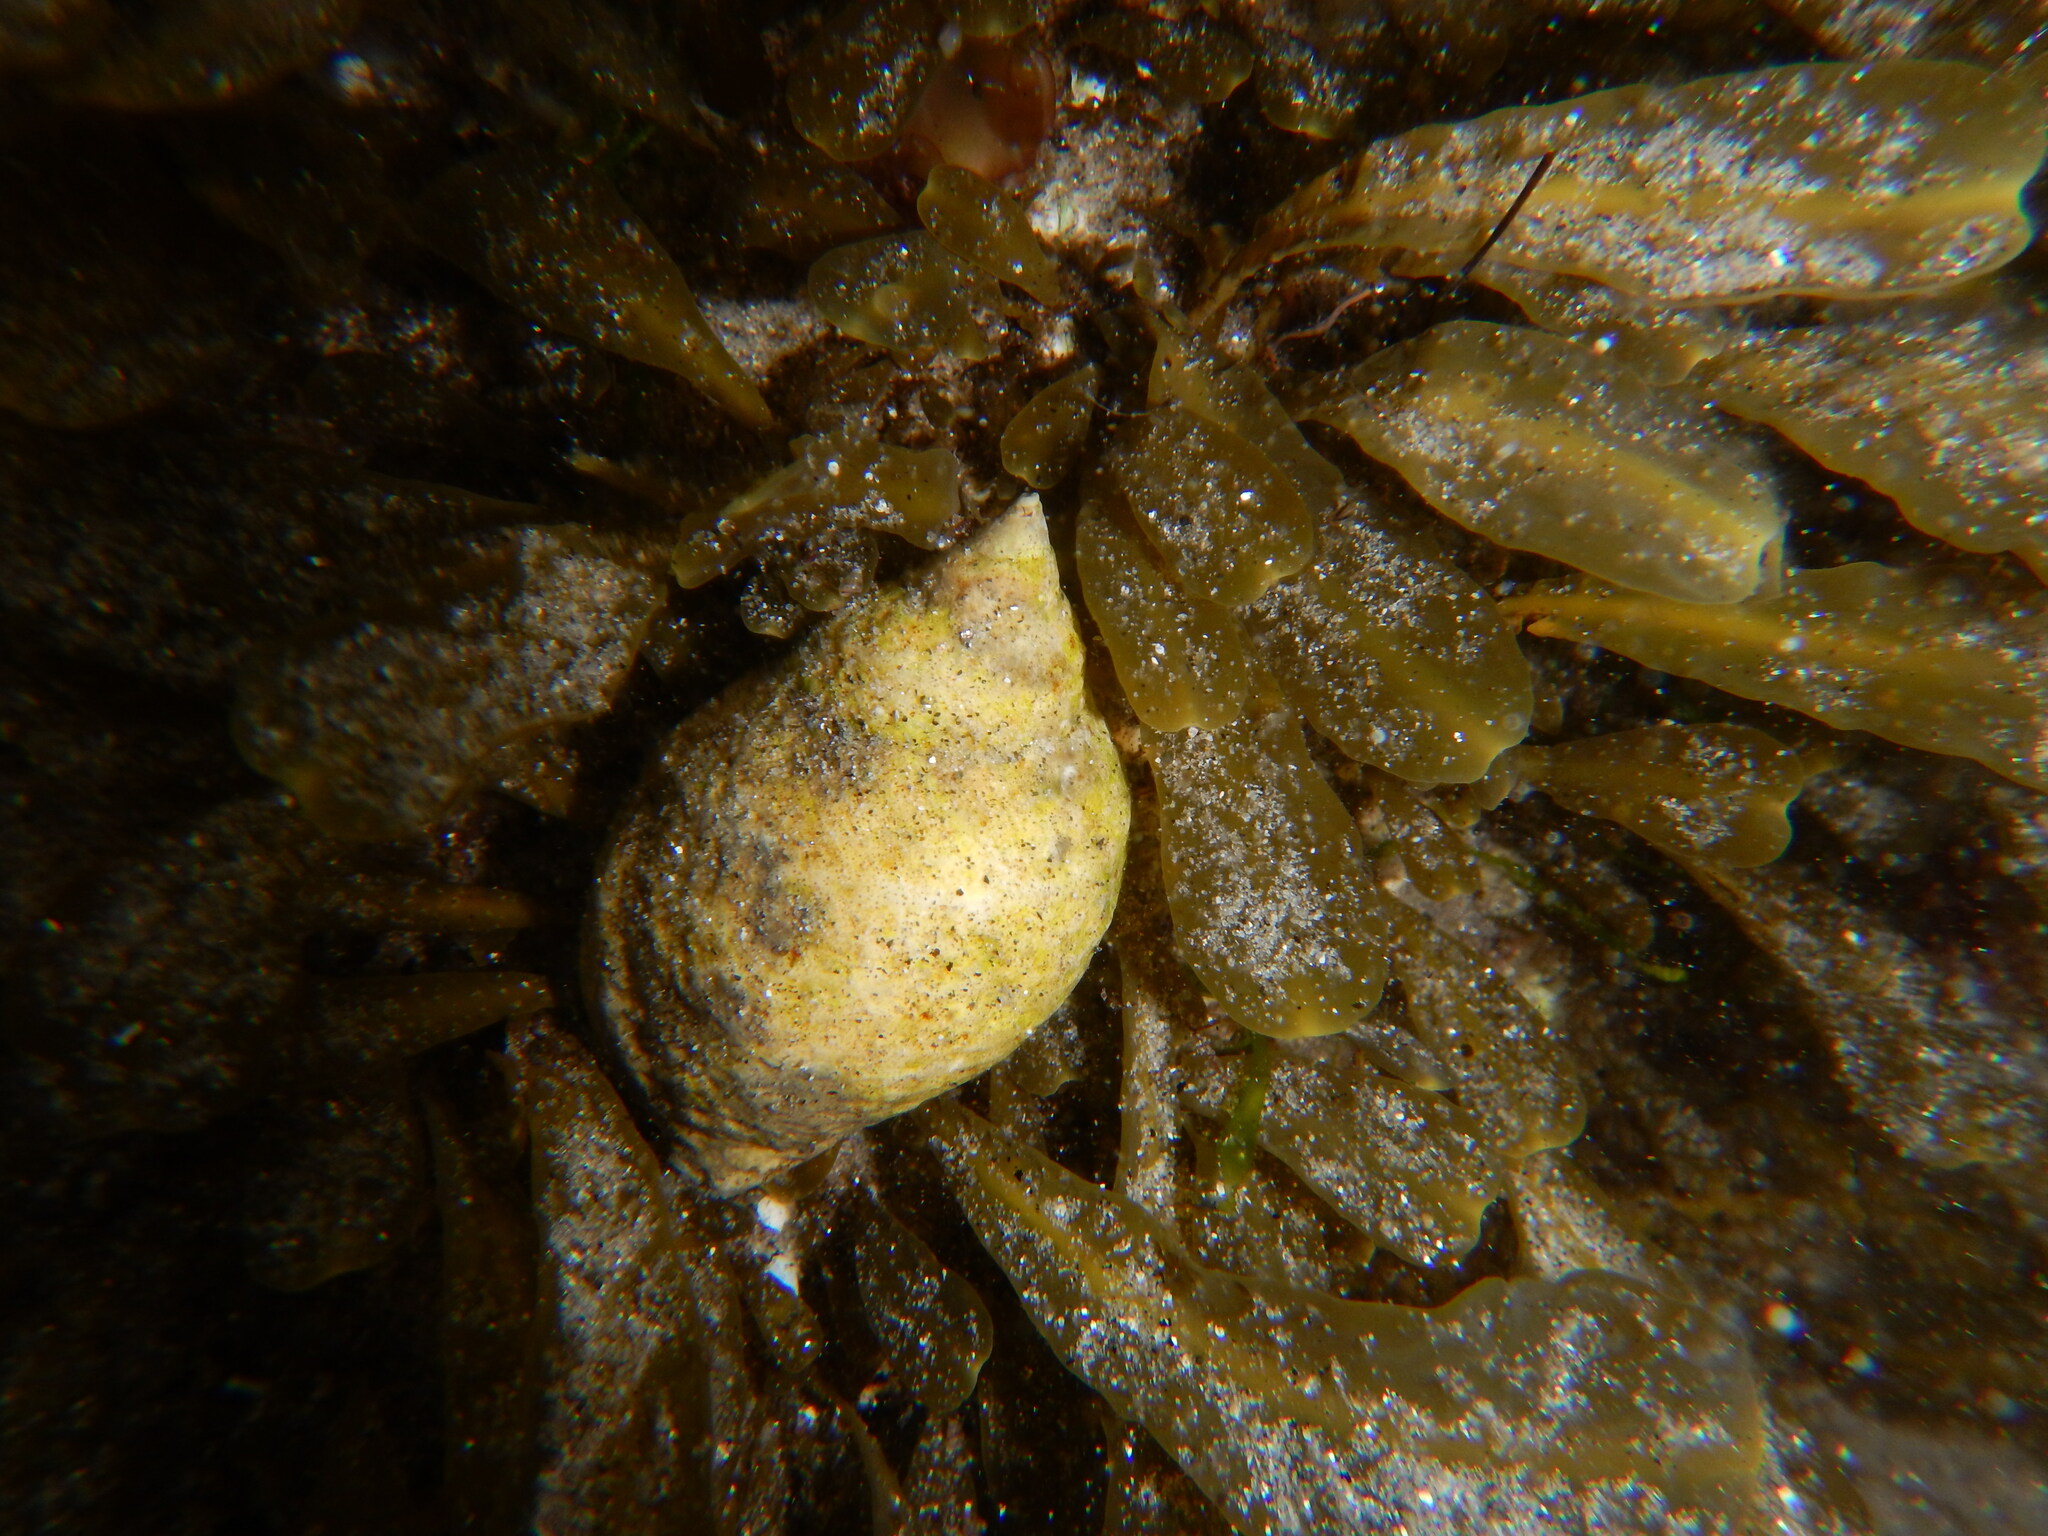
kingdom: Animalia
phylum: Mollusca
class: Gastropoda
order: Neogastropoda
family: Muricidae
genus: Nucella
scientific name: Nucella lapillus
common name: Dog whelk
